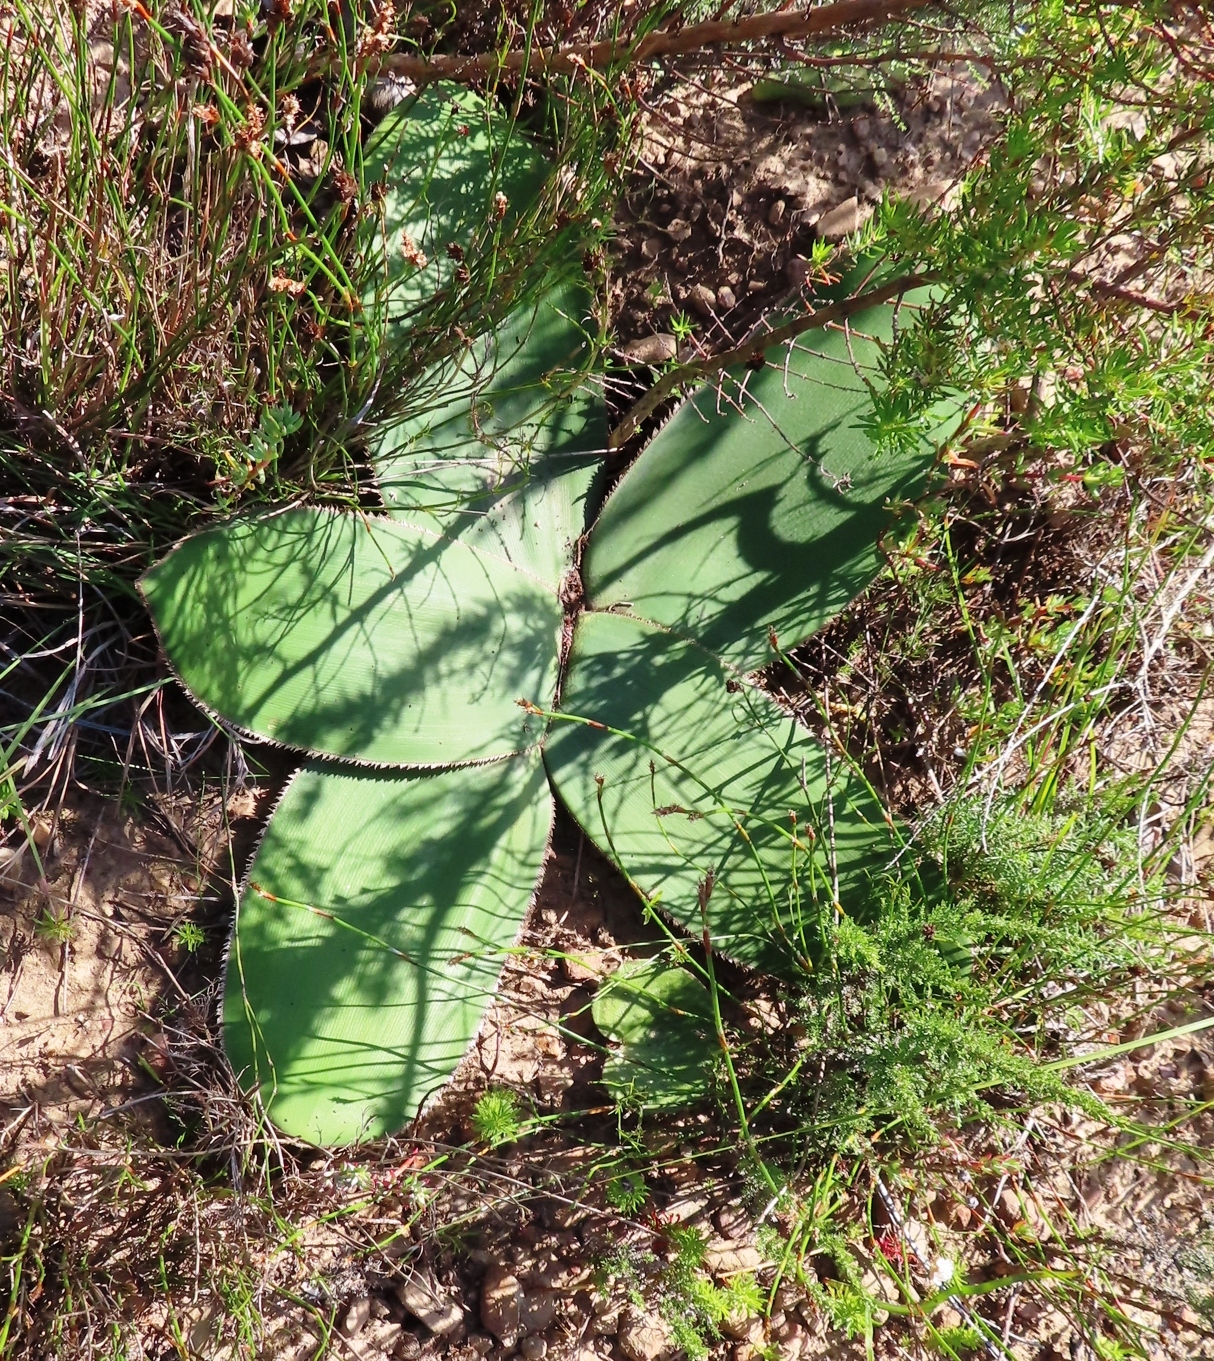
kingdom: Plantae
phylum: Tracheophyta
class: Liliopsida
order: Asparagales
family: Amaryllidaceae
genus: Crossyne
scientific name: Crossyne guttata
